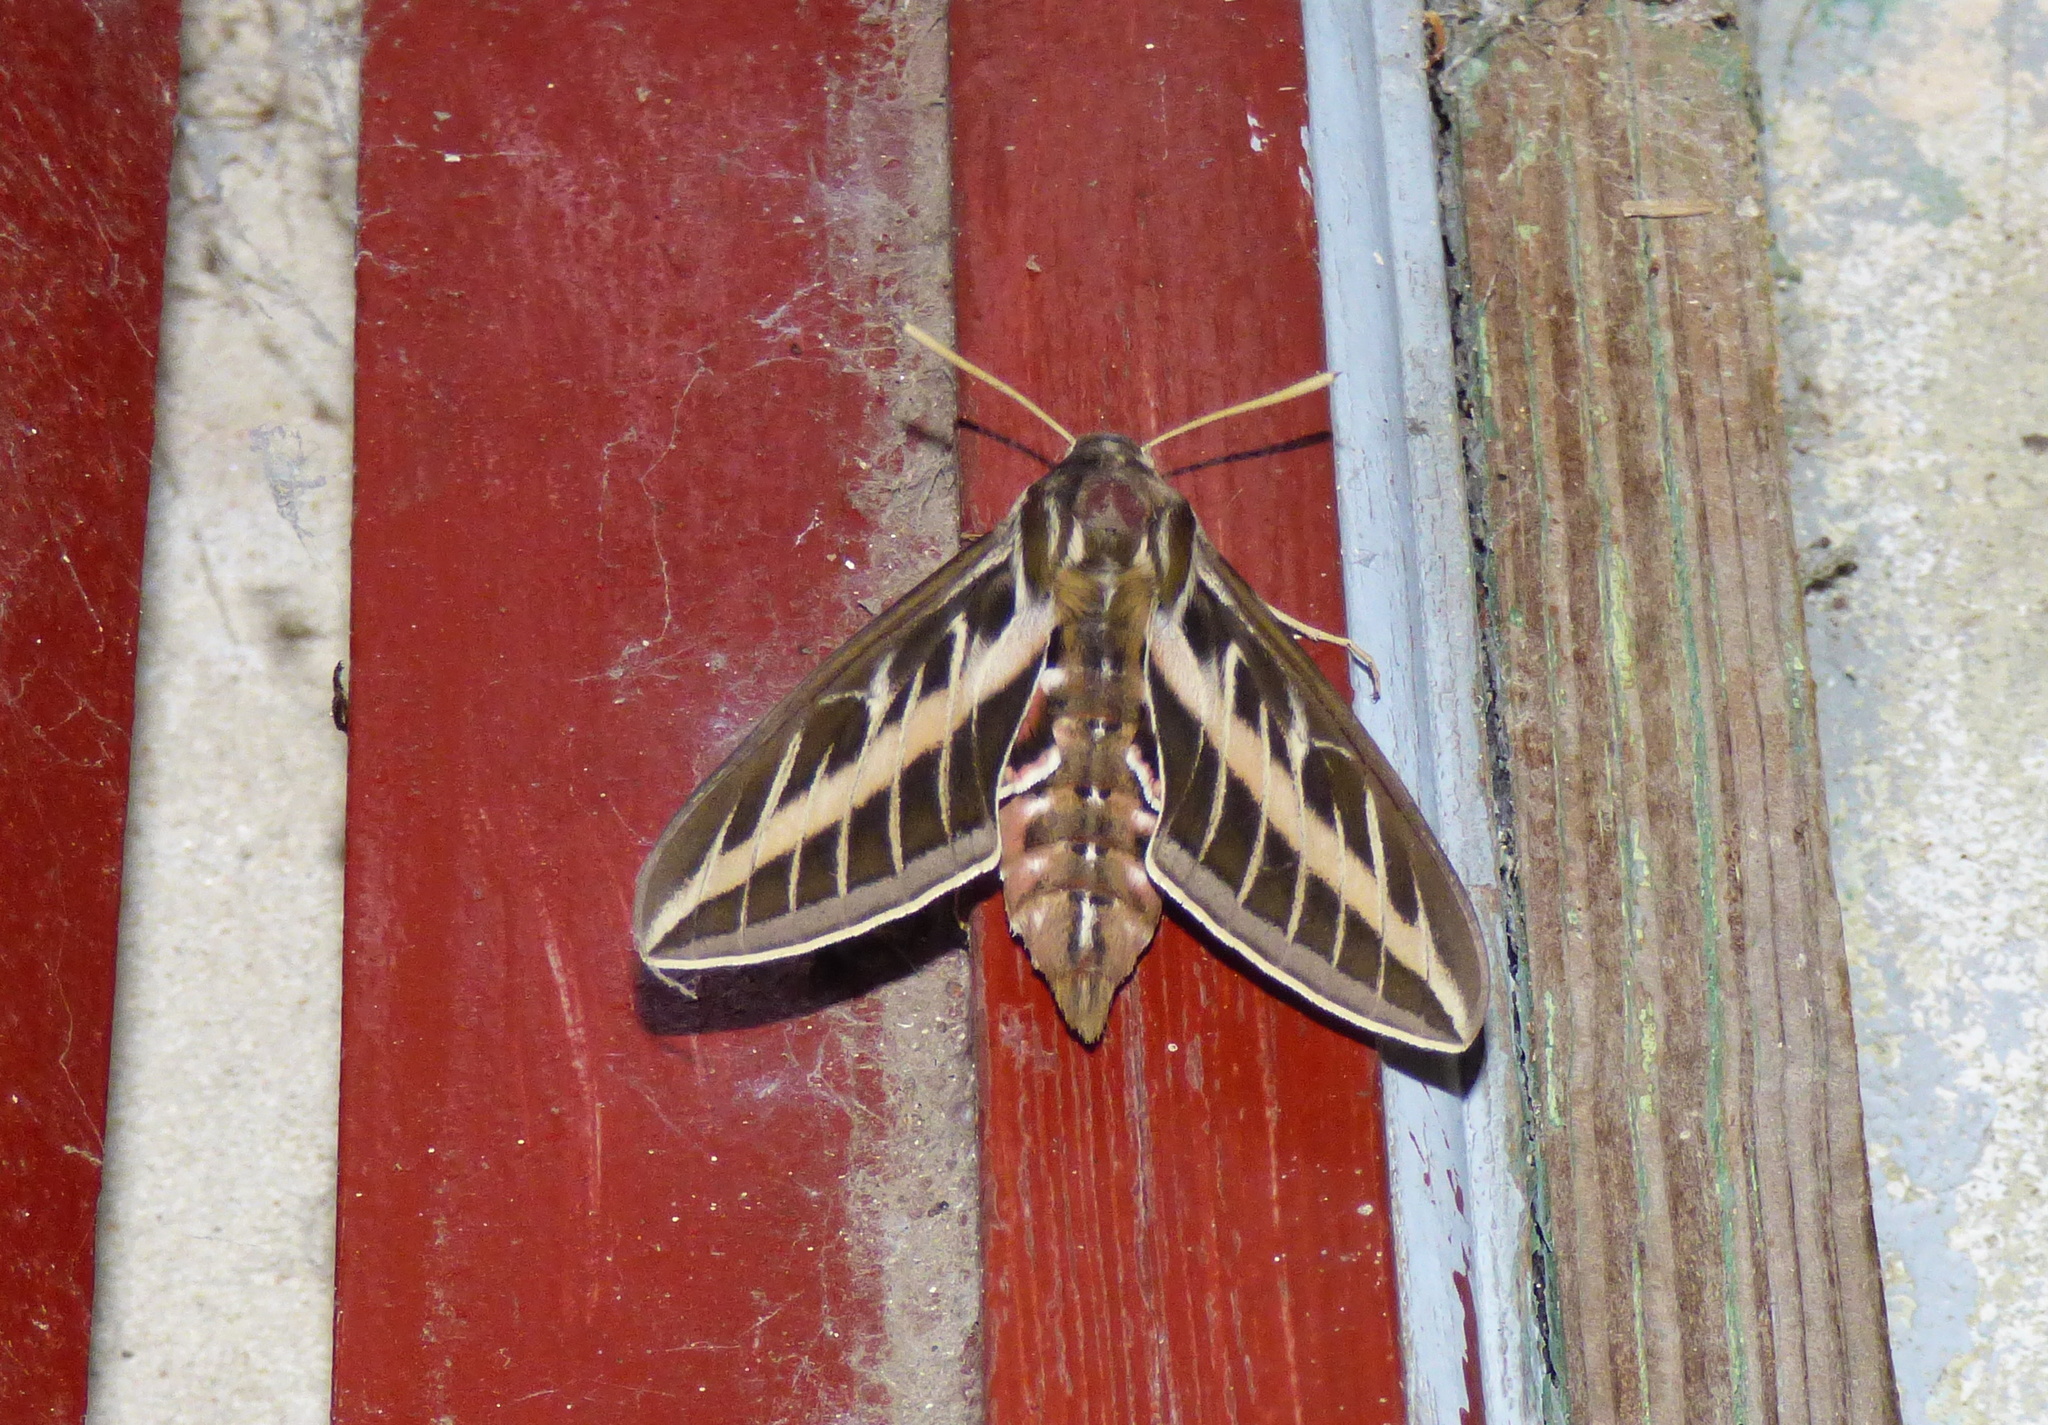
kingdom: Animalia
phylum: Arthropoda
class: Insecta
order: Lepidoptera
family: Sphingidae
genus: Hyles
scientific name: Hyles lineata
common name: White-lined sphinx
